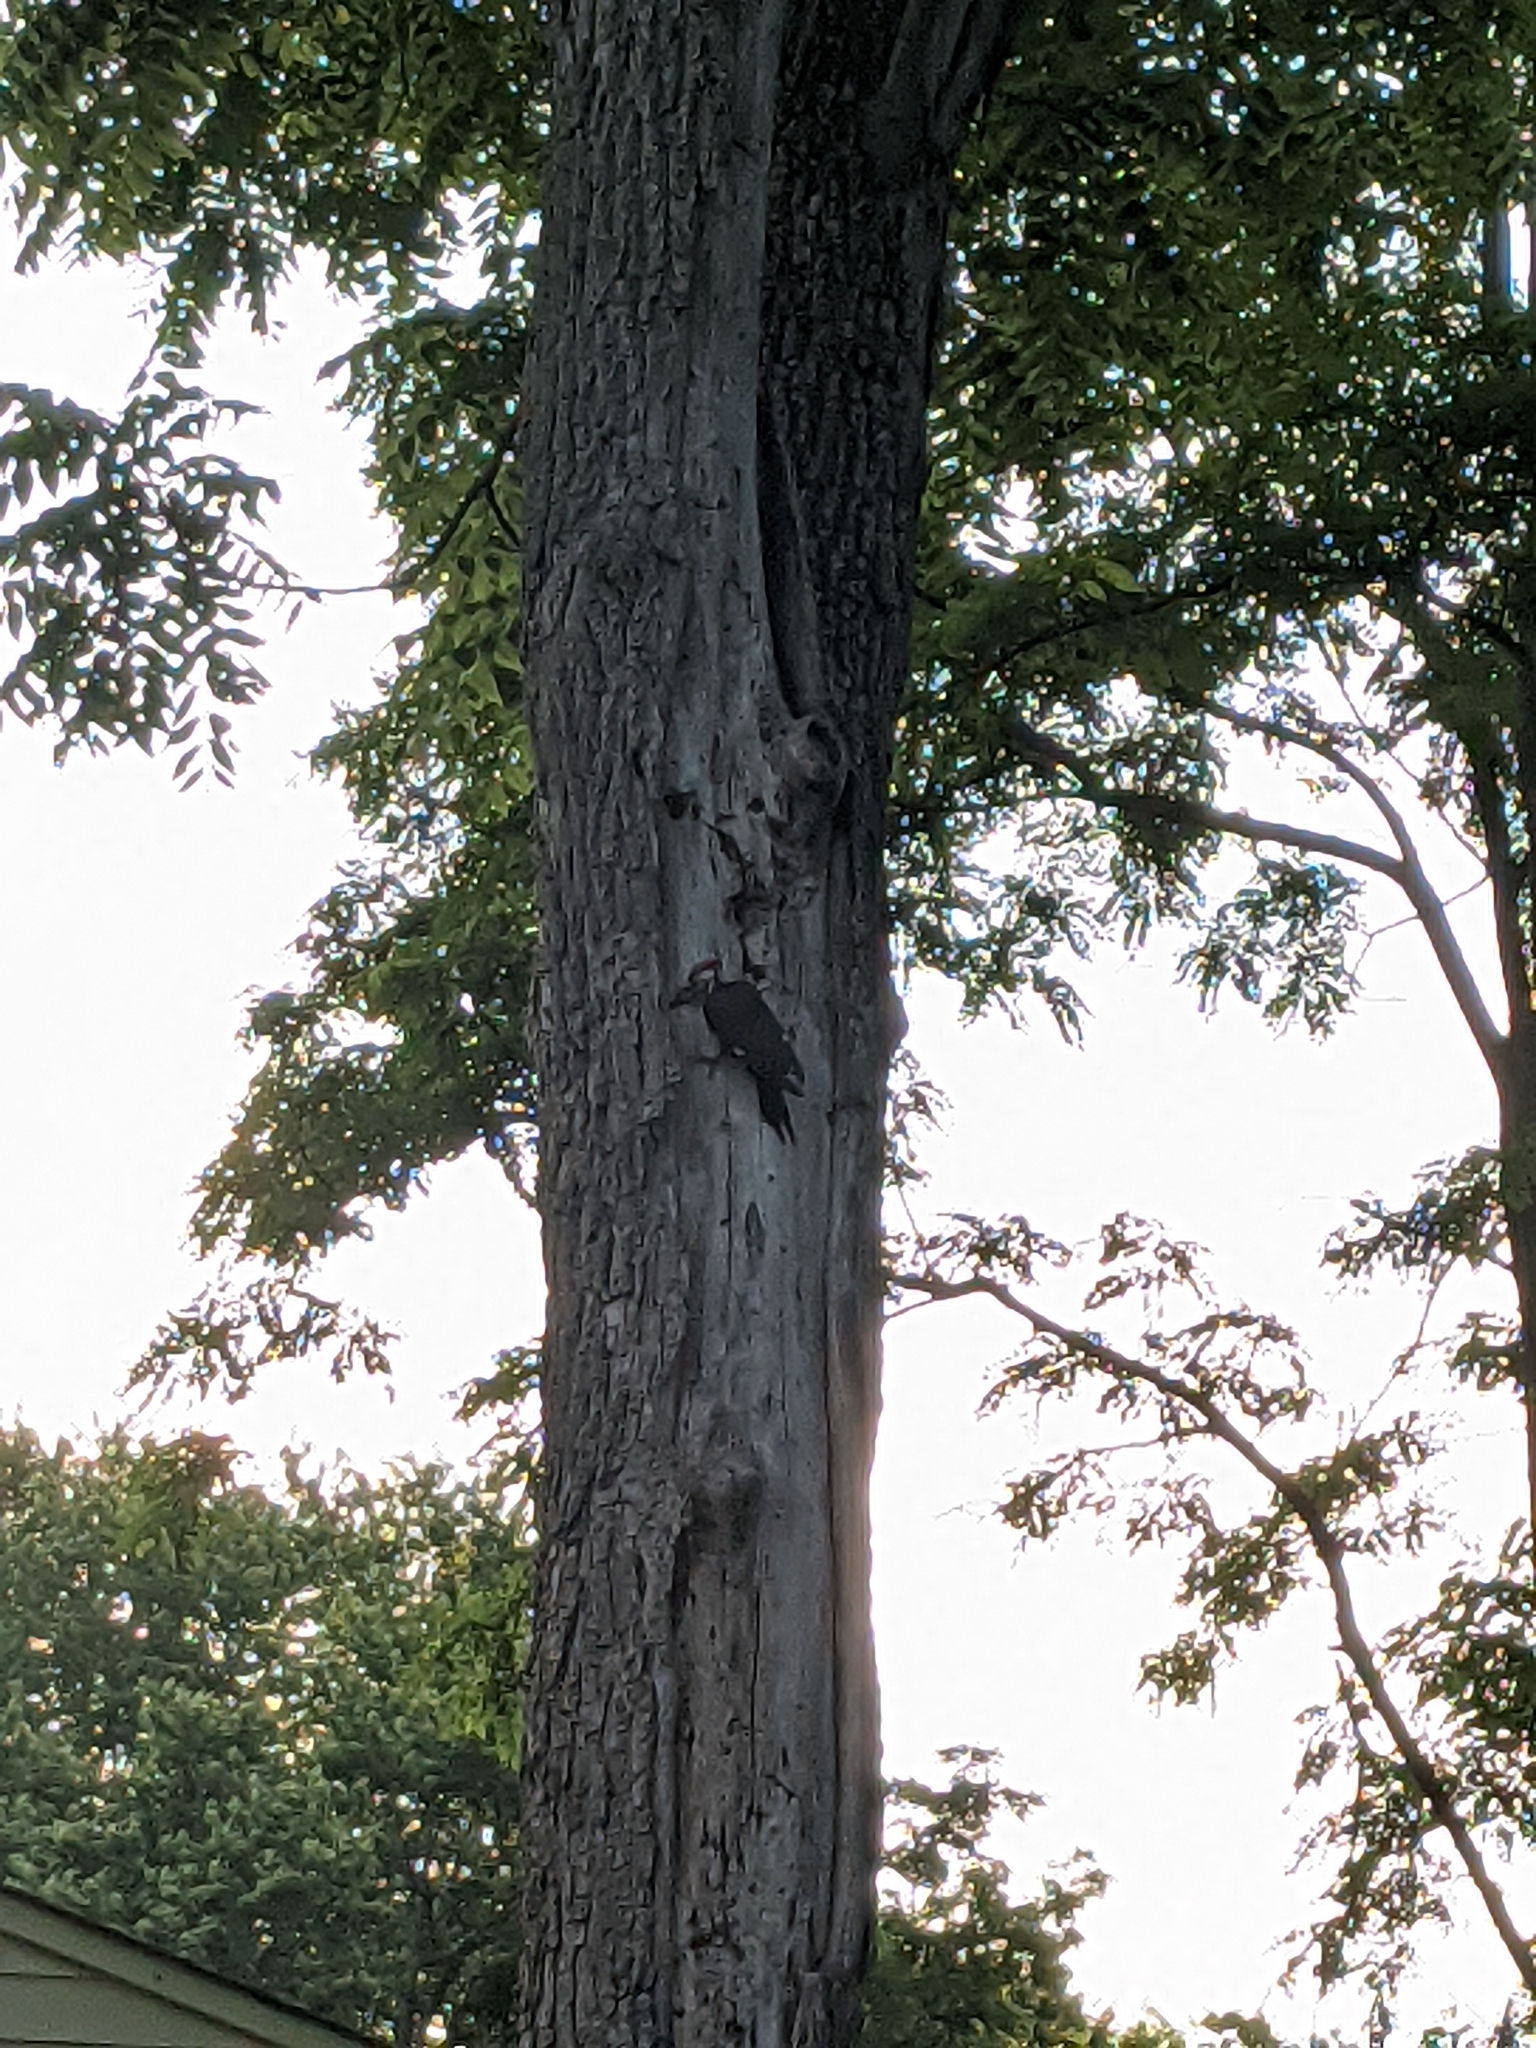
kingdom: Animalia
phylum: Chordata
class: Aves
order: Piciformes
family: Picidae
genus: Dryocopus
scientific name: Dryocopus pileatus
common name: Pileated woodpecker
